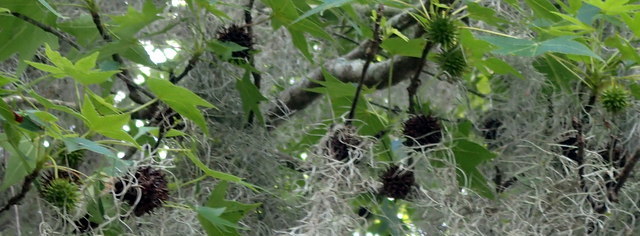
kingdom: Plantae
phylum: Tracheophyta
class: Magnoliopsida
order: Saxifragales
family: Altingiaceae
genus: Liquidambar
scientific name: Liquidambar styraciflua
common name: Sweet gum
